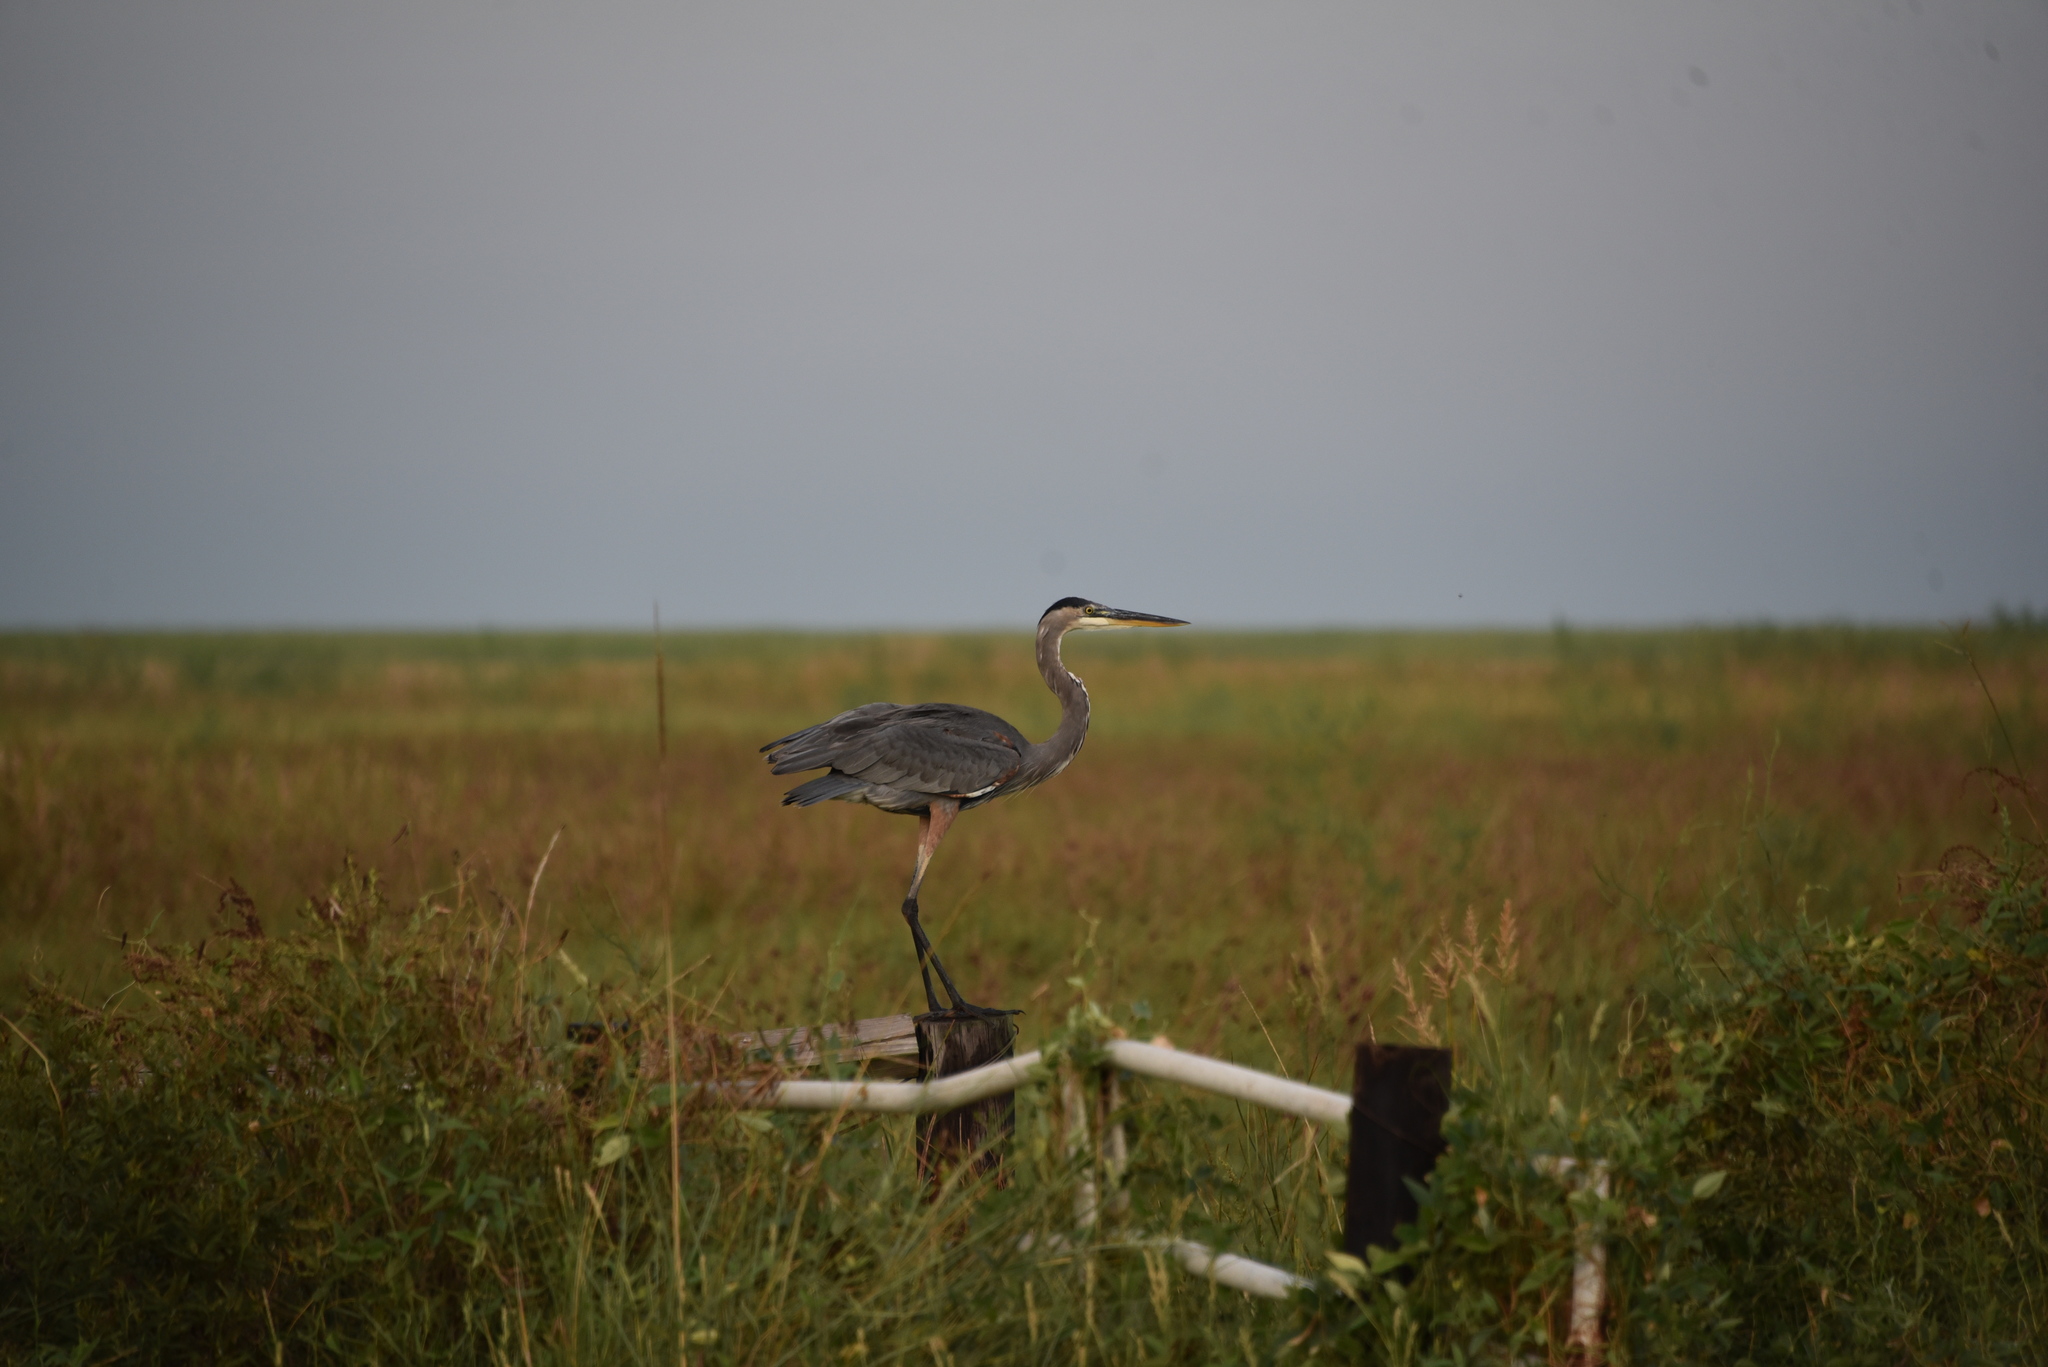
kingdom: Animalia
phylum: Chordata
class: Aves
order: Pelecaniformes
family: Ardeidae
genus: Ardea
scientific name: Ardea herodias
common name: Great blue heron
